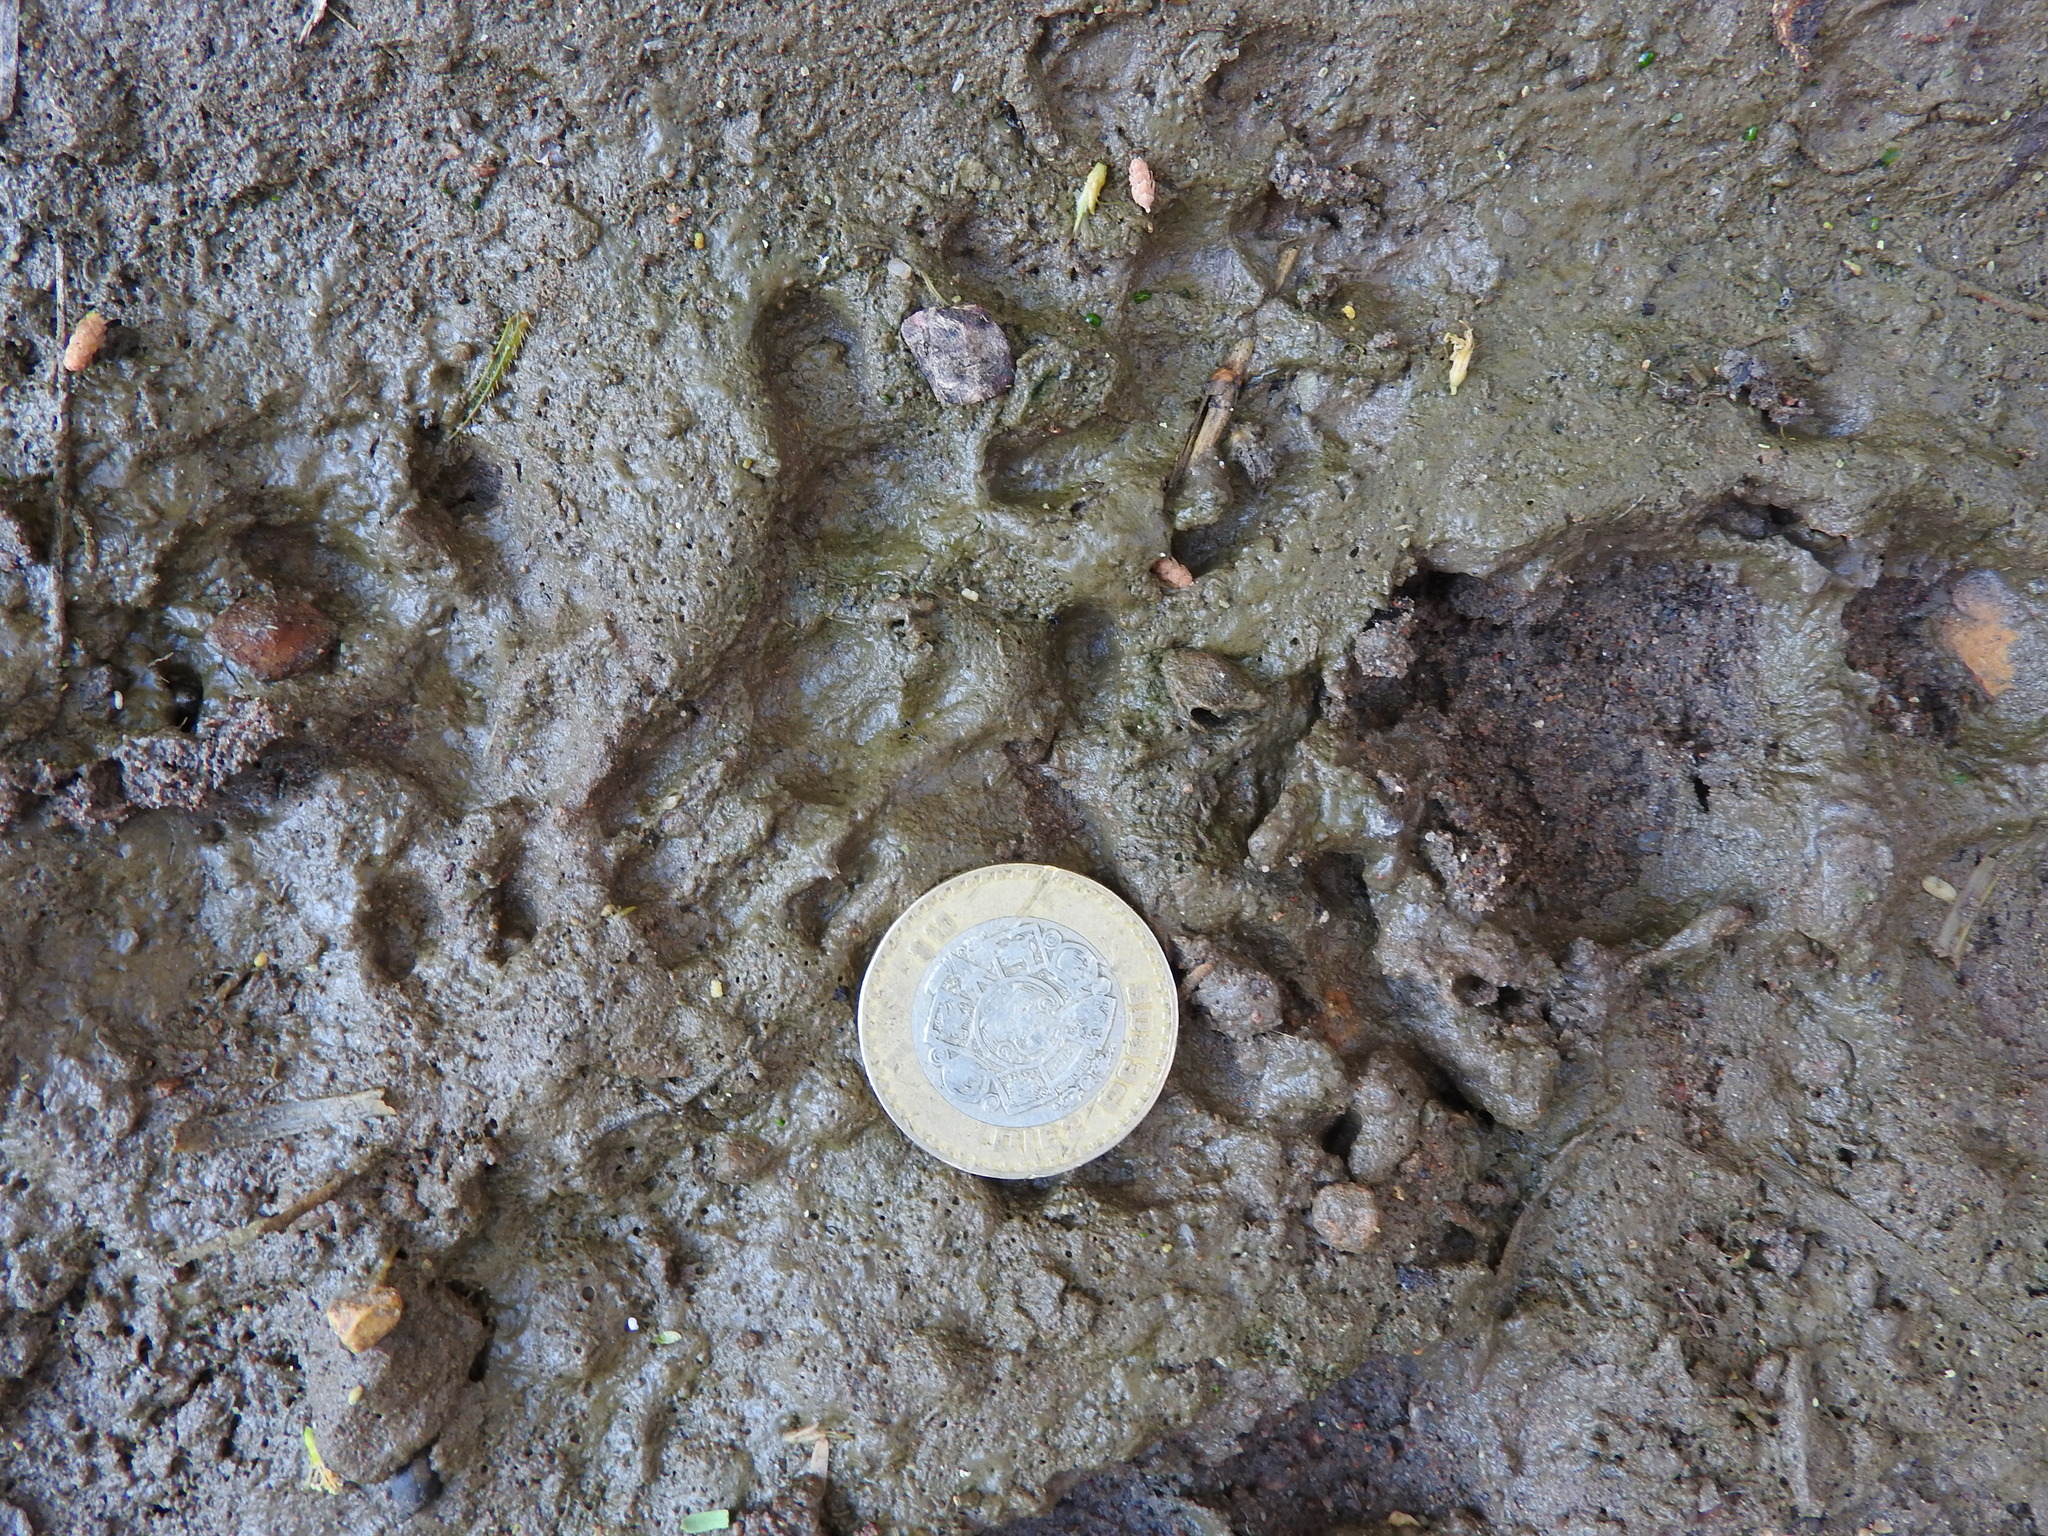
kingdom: Animalia
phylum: Chordata
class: Mammalia
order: Didelphimorphia
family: Didelphidae
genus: Didelphis
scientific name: Didelphis virginiana
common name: Virginia opossum
